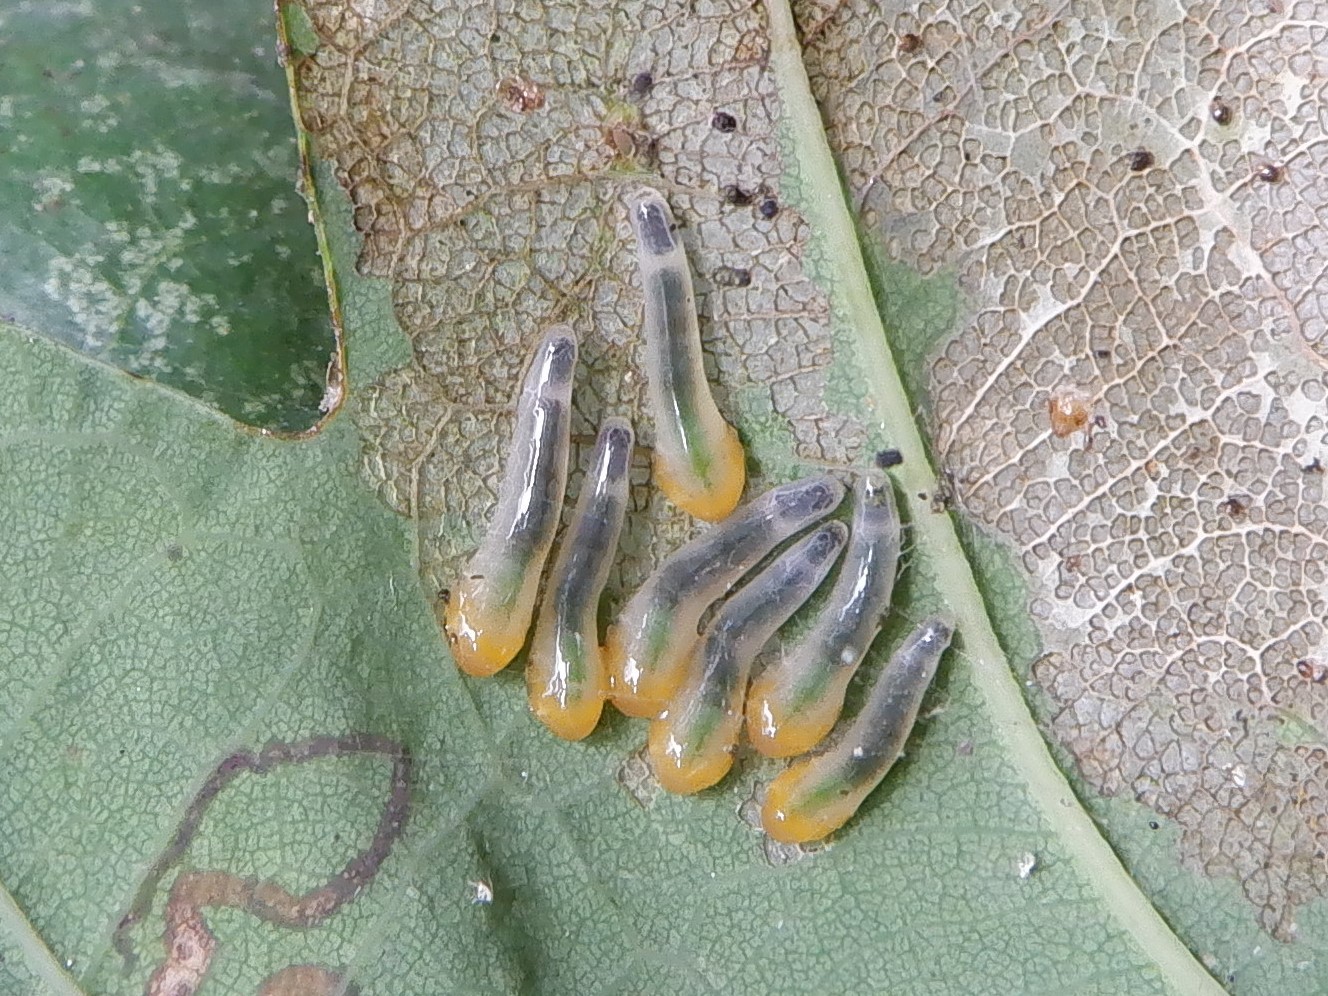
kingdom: Animalia
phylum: Arthropoda
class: Insecta
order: Hymenoptera
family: Tenthredinidae
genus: Caliroa
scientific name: Caliroa cinxia
